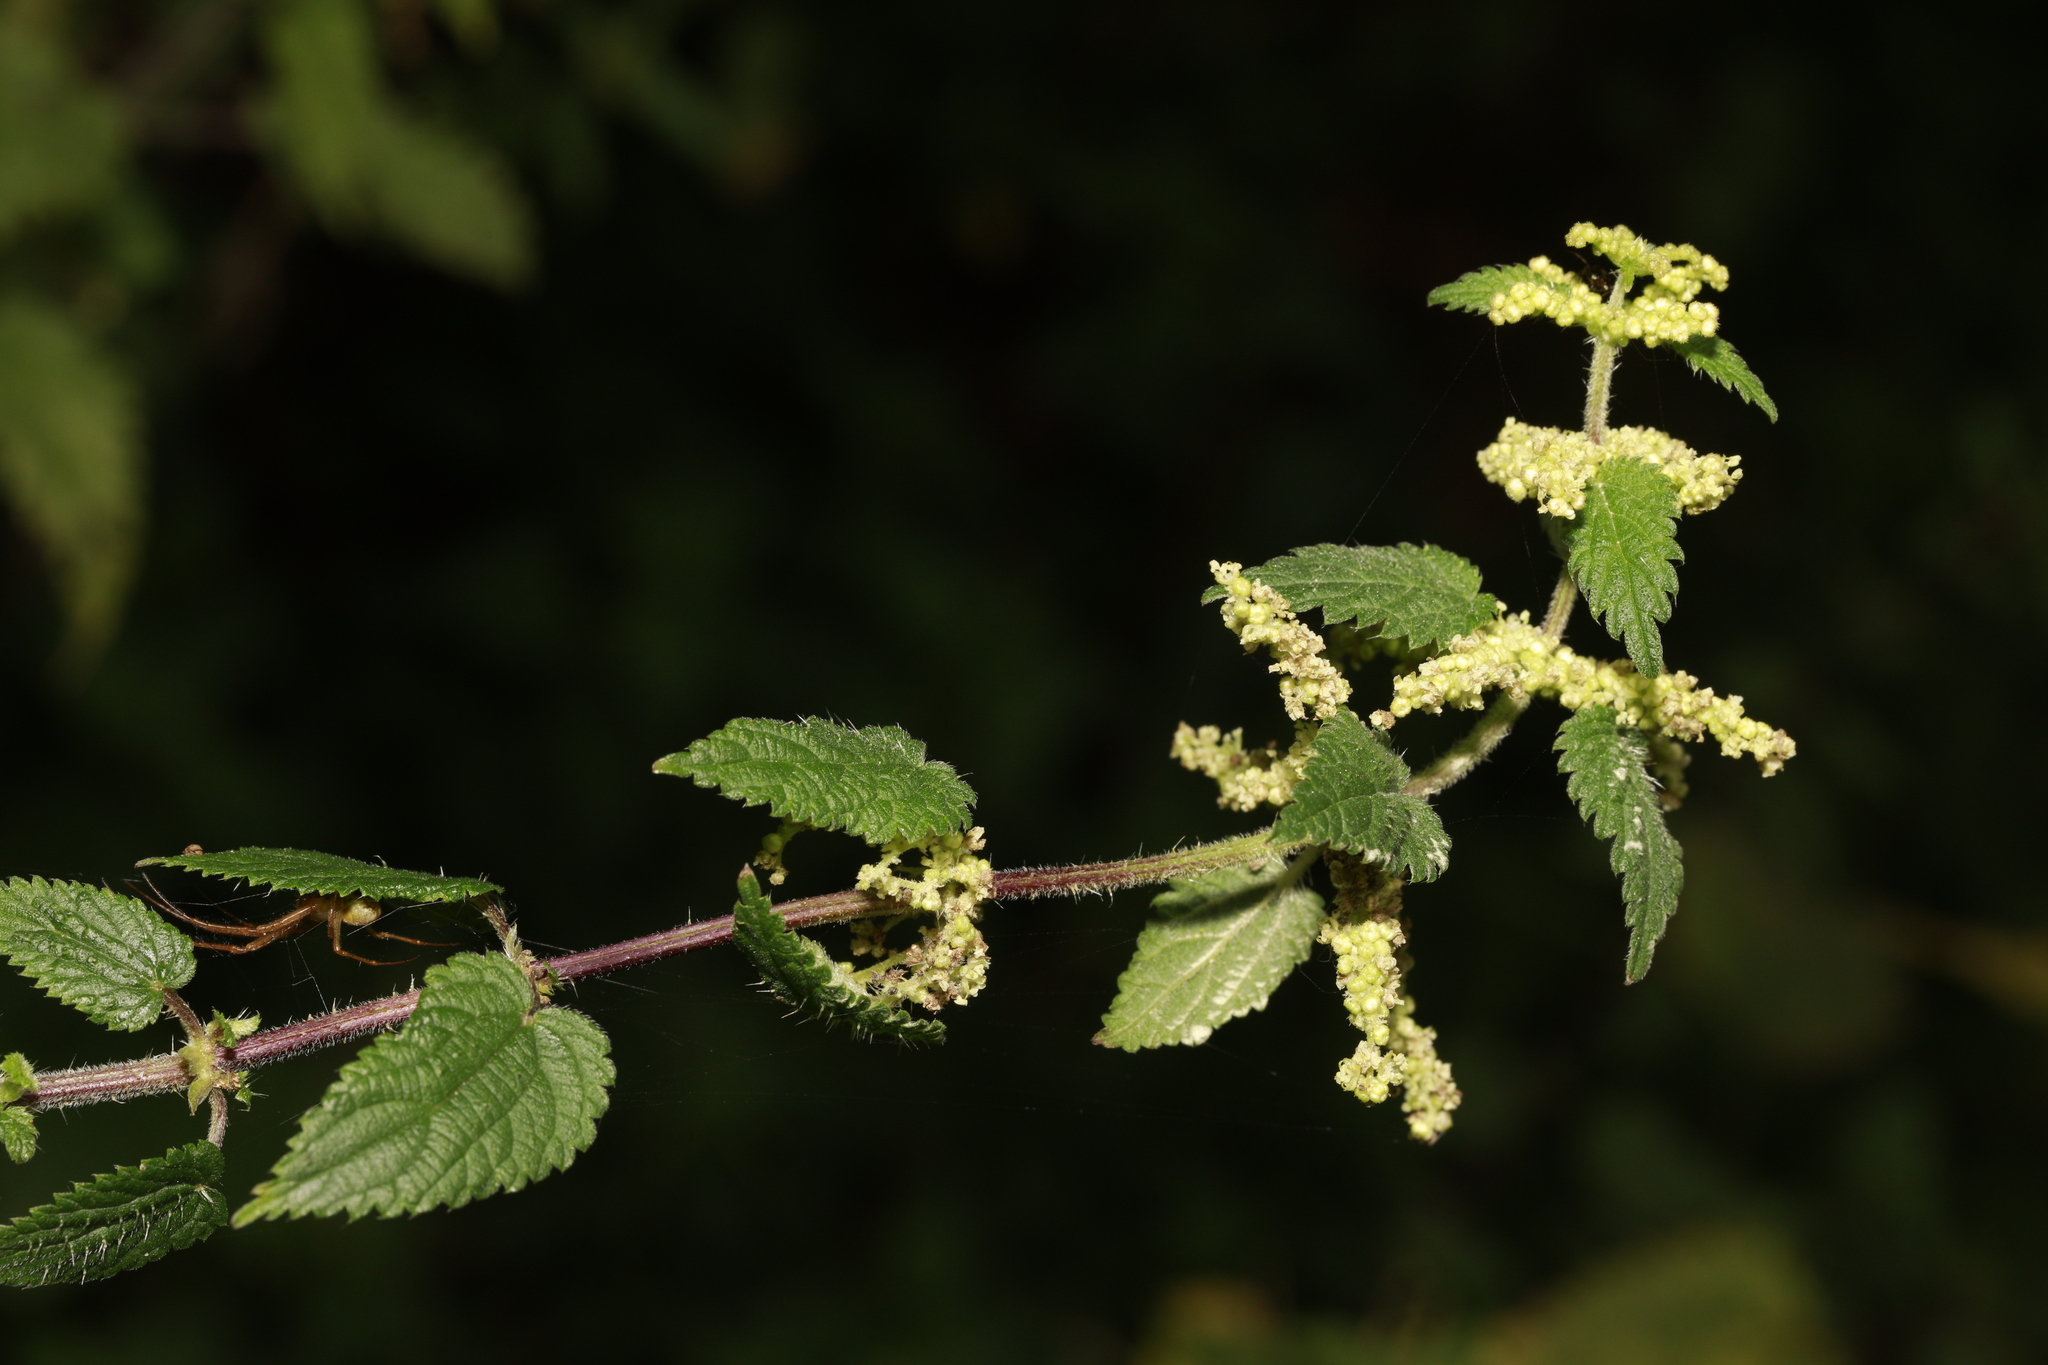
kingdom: Plantae
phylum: Tracheophyta
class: Magnoliopsida
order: Rosales
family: Urticaceae
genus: Urtica
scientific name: Urtica dioica
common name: Common nettle
